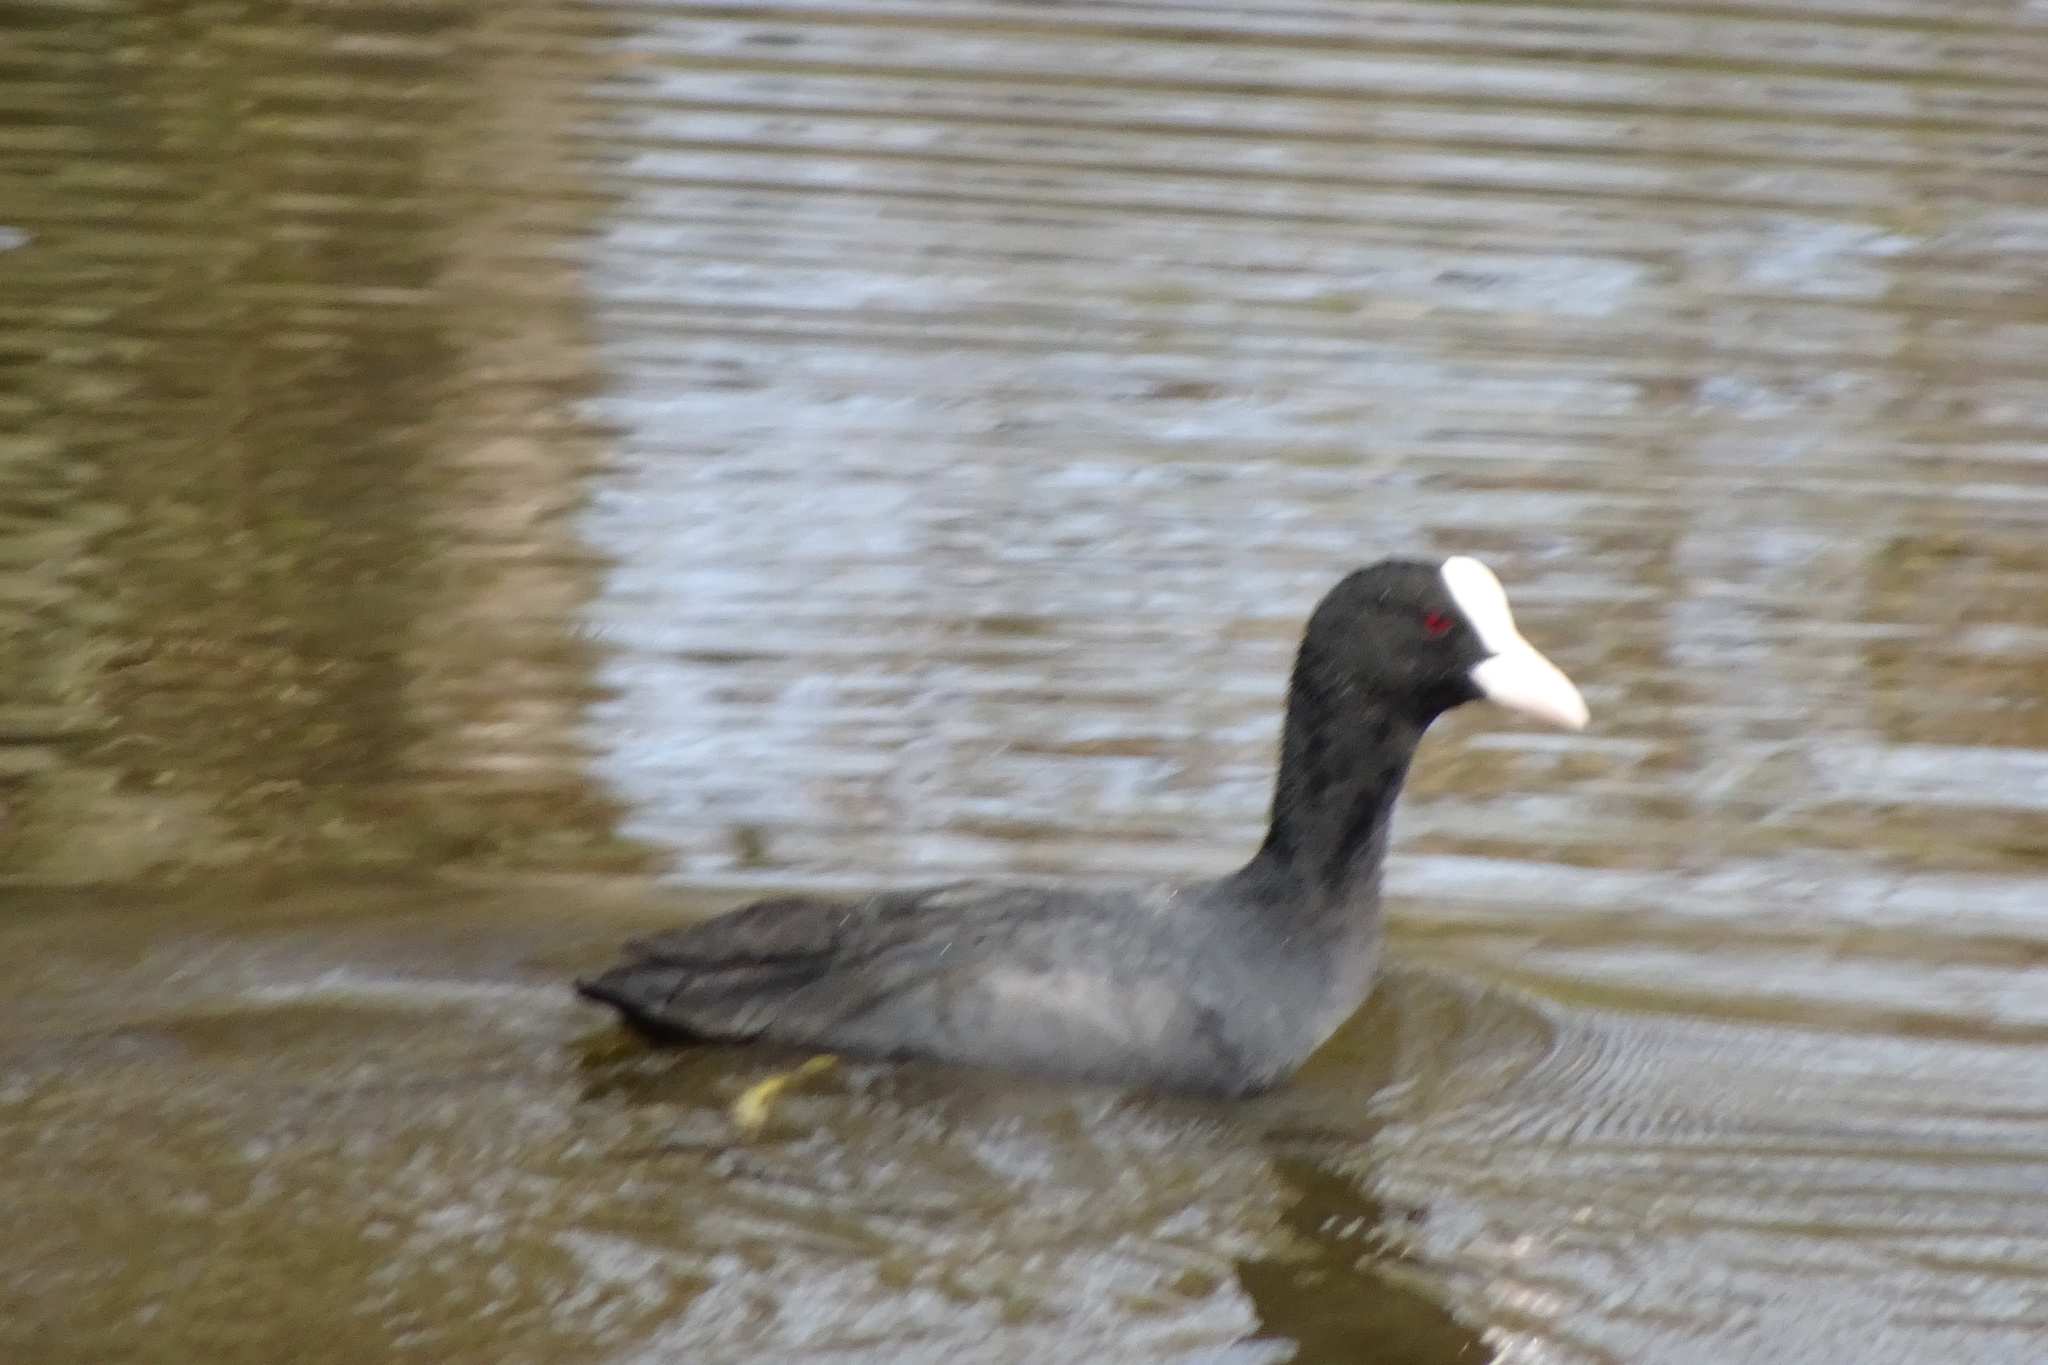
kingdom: Animalia
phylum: Chordata
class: Aves
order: Gruiformes
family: Rallidae
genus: Fulica
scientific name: Fulica atra
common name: Eurasian coot
